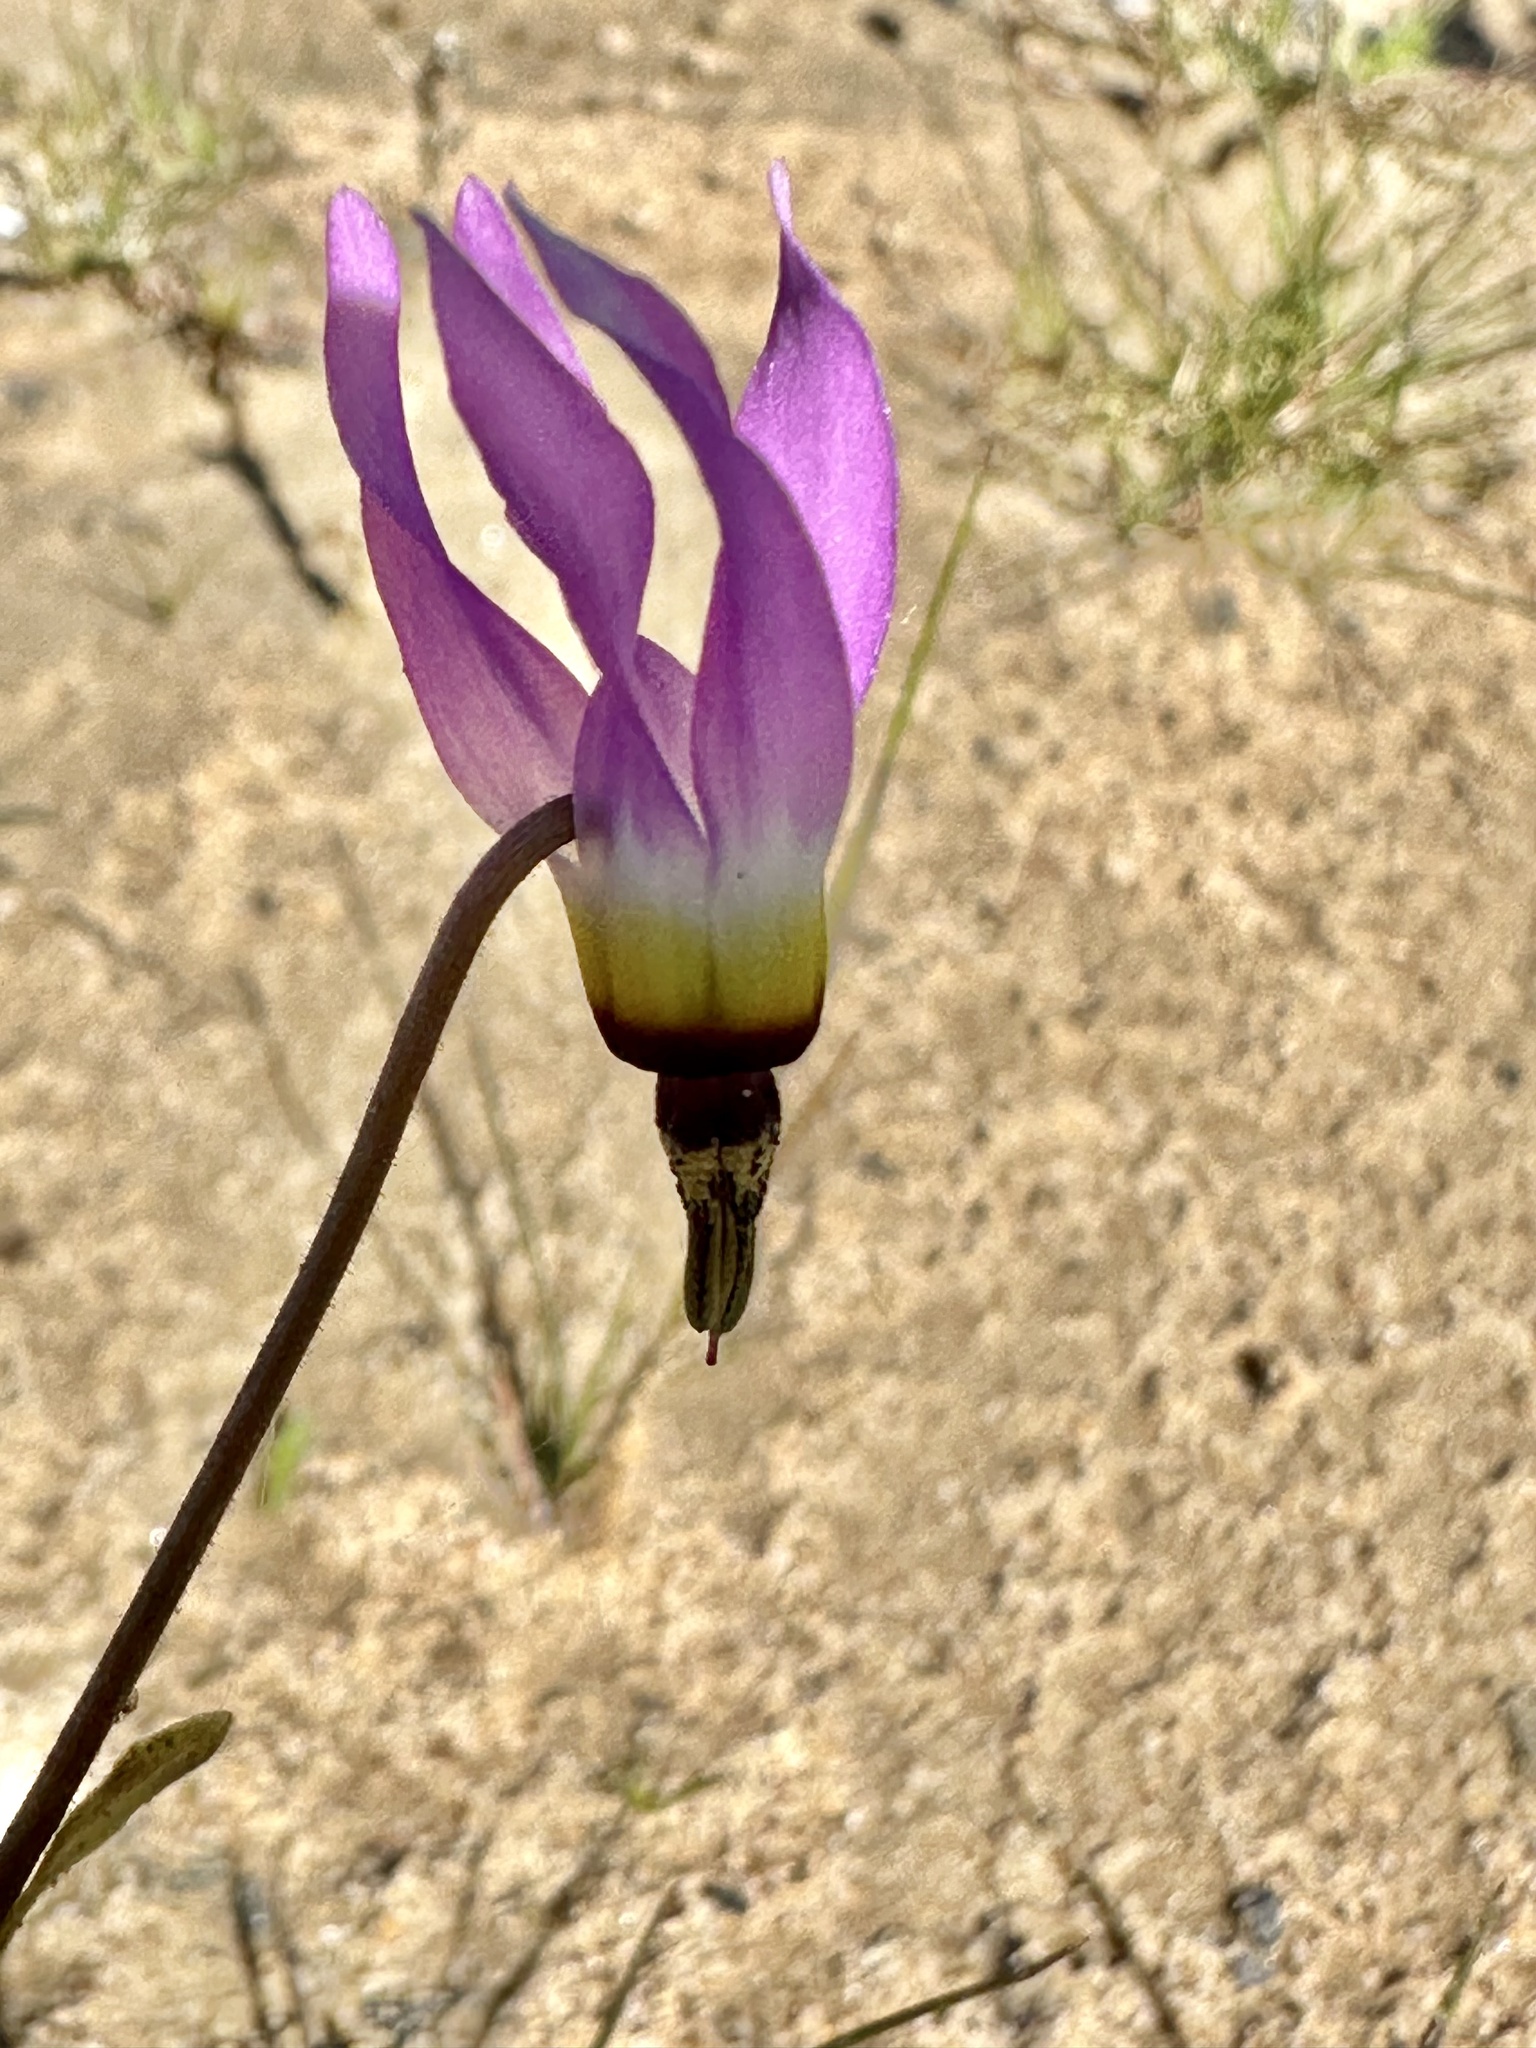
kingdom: Plantae
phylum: Tracheophyta
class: Magnoliopsida
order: Ericales
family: Primulaceae
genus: Dodecatheon
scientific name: Dodecatheon clevelandii
